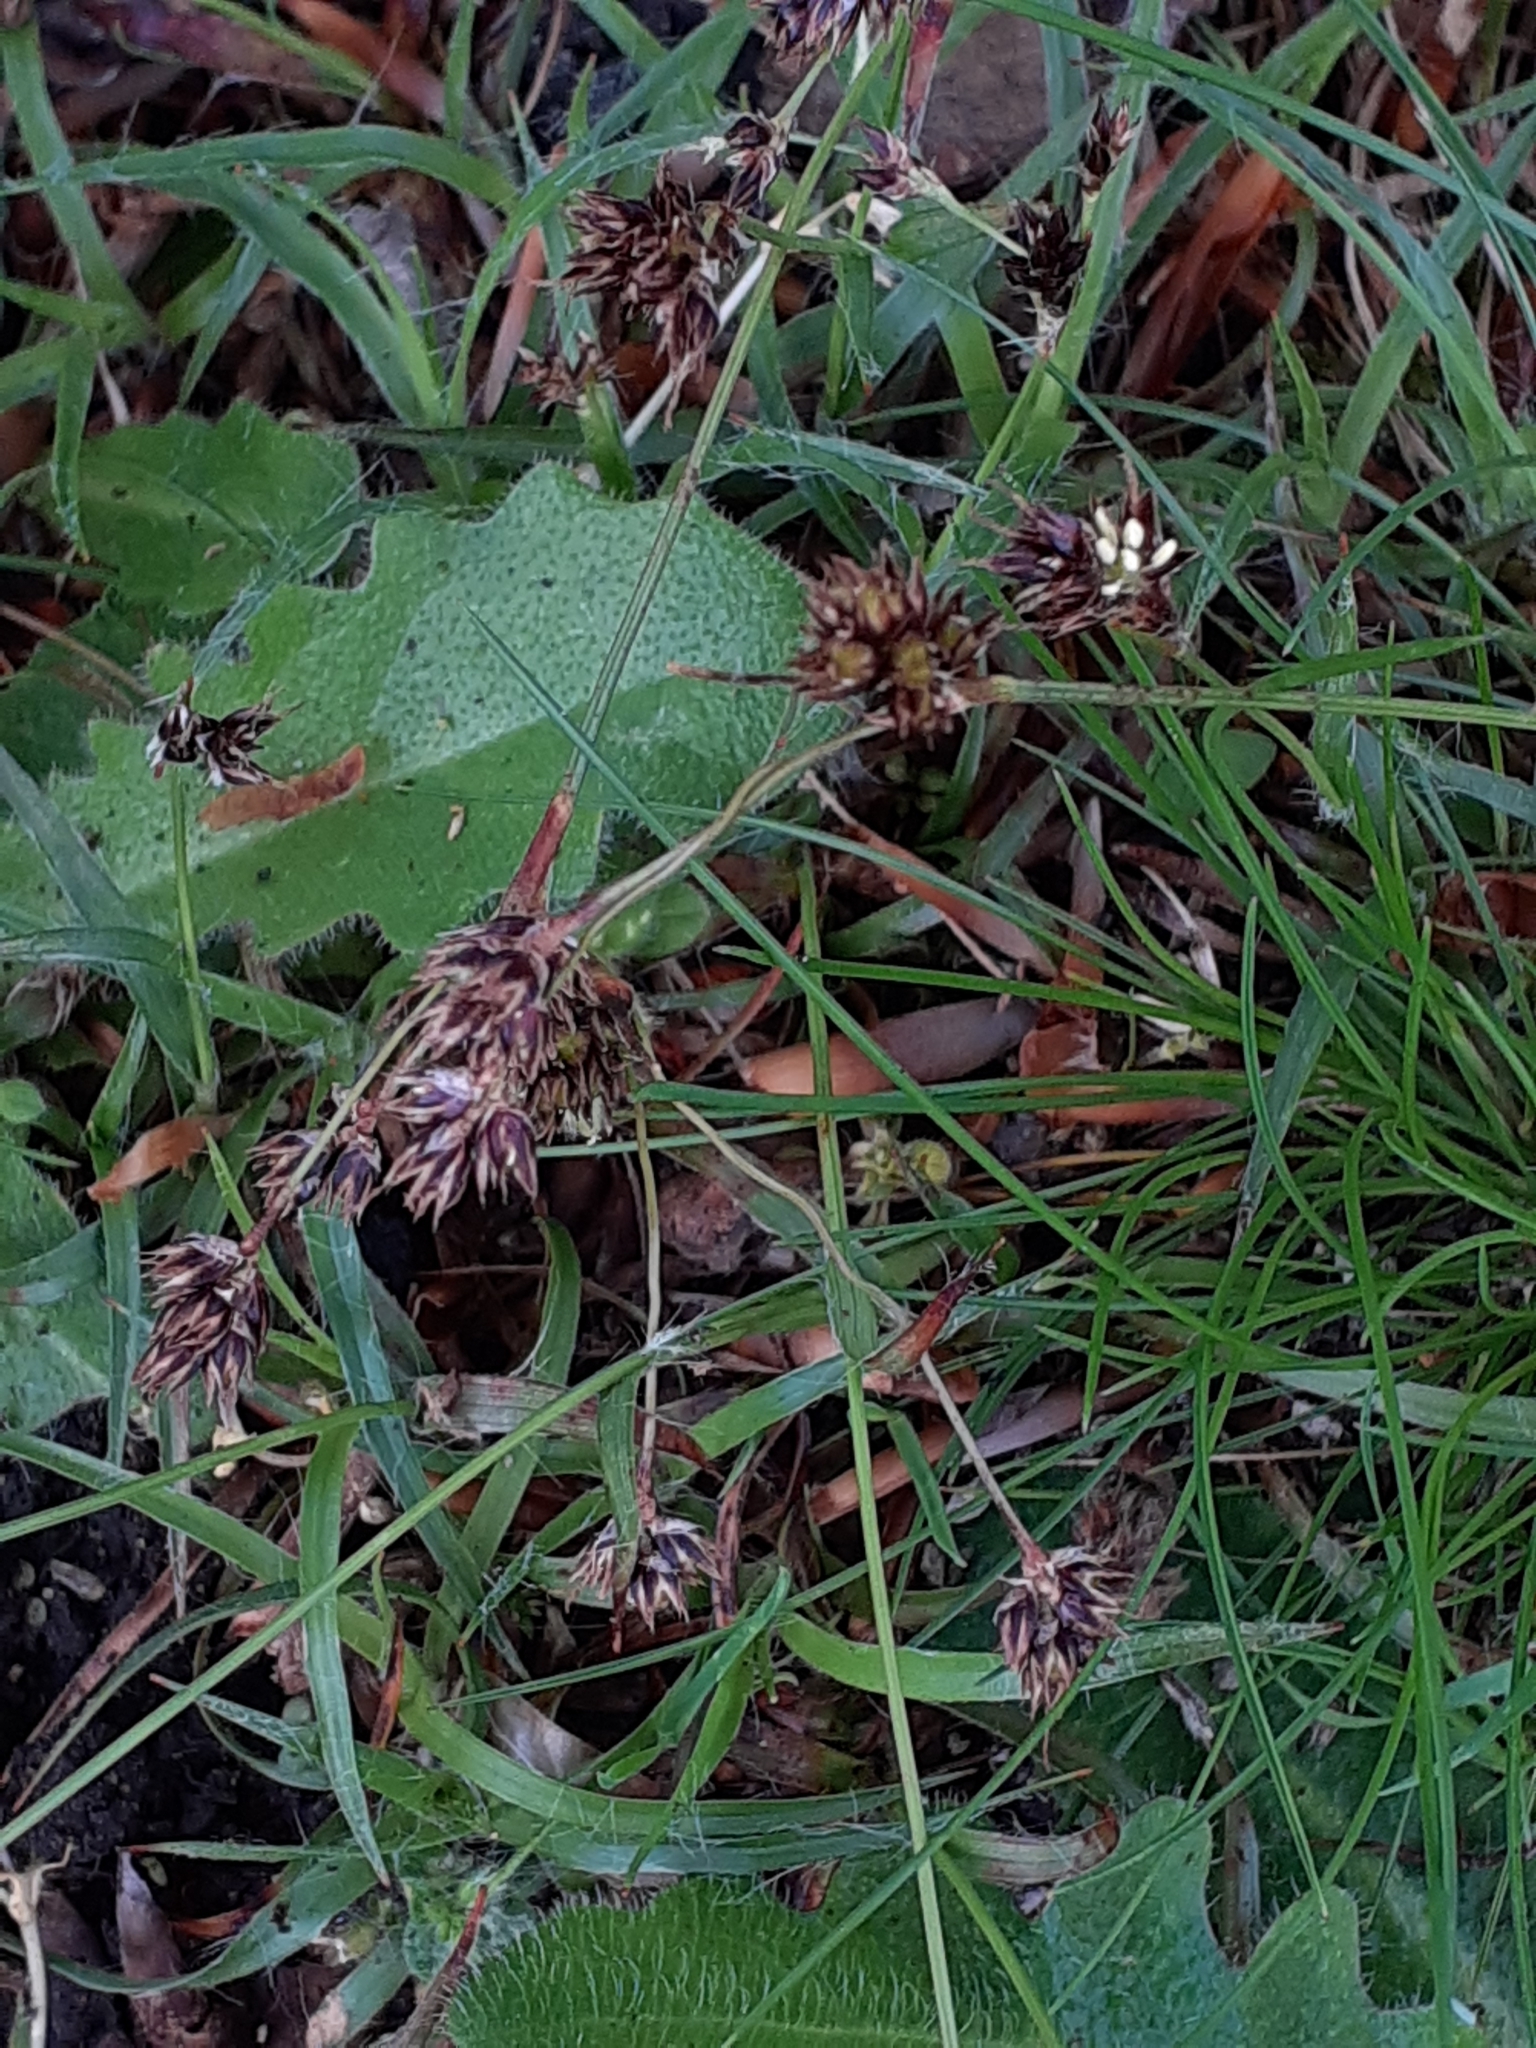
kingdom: Plantae
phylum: Tracheophyta
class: Liliopsida
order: Poales
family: Juncaceae
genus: Luzula
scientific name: Luzula campestris
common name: Field wood-rush
